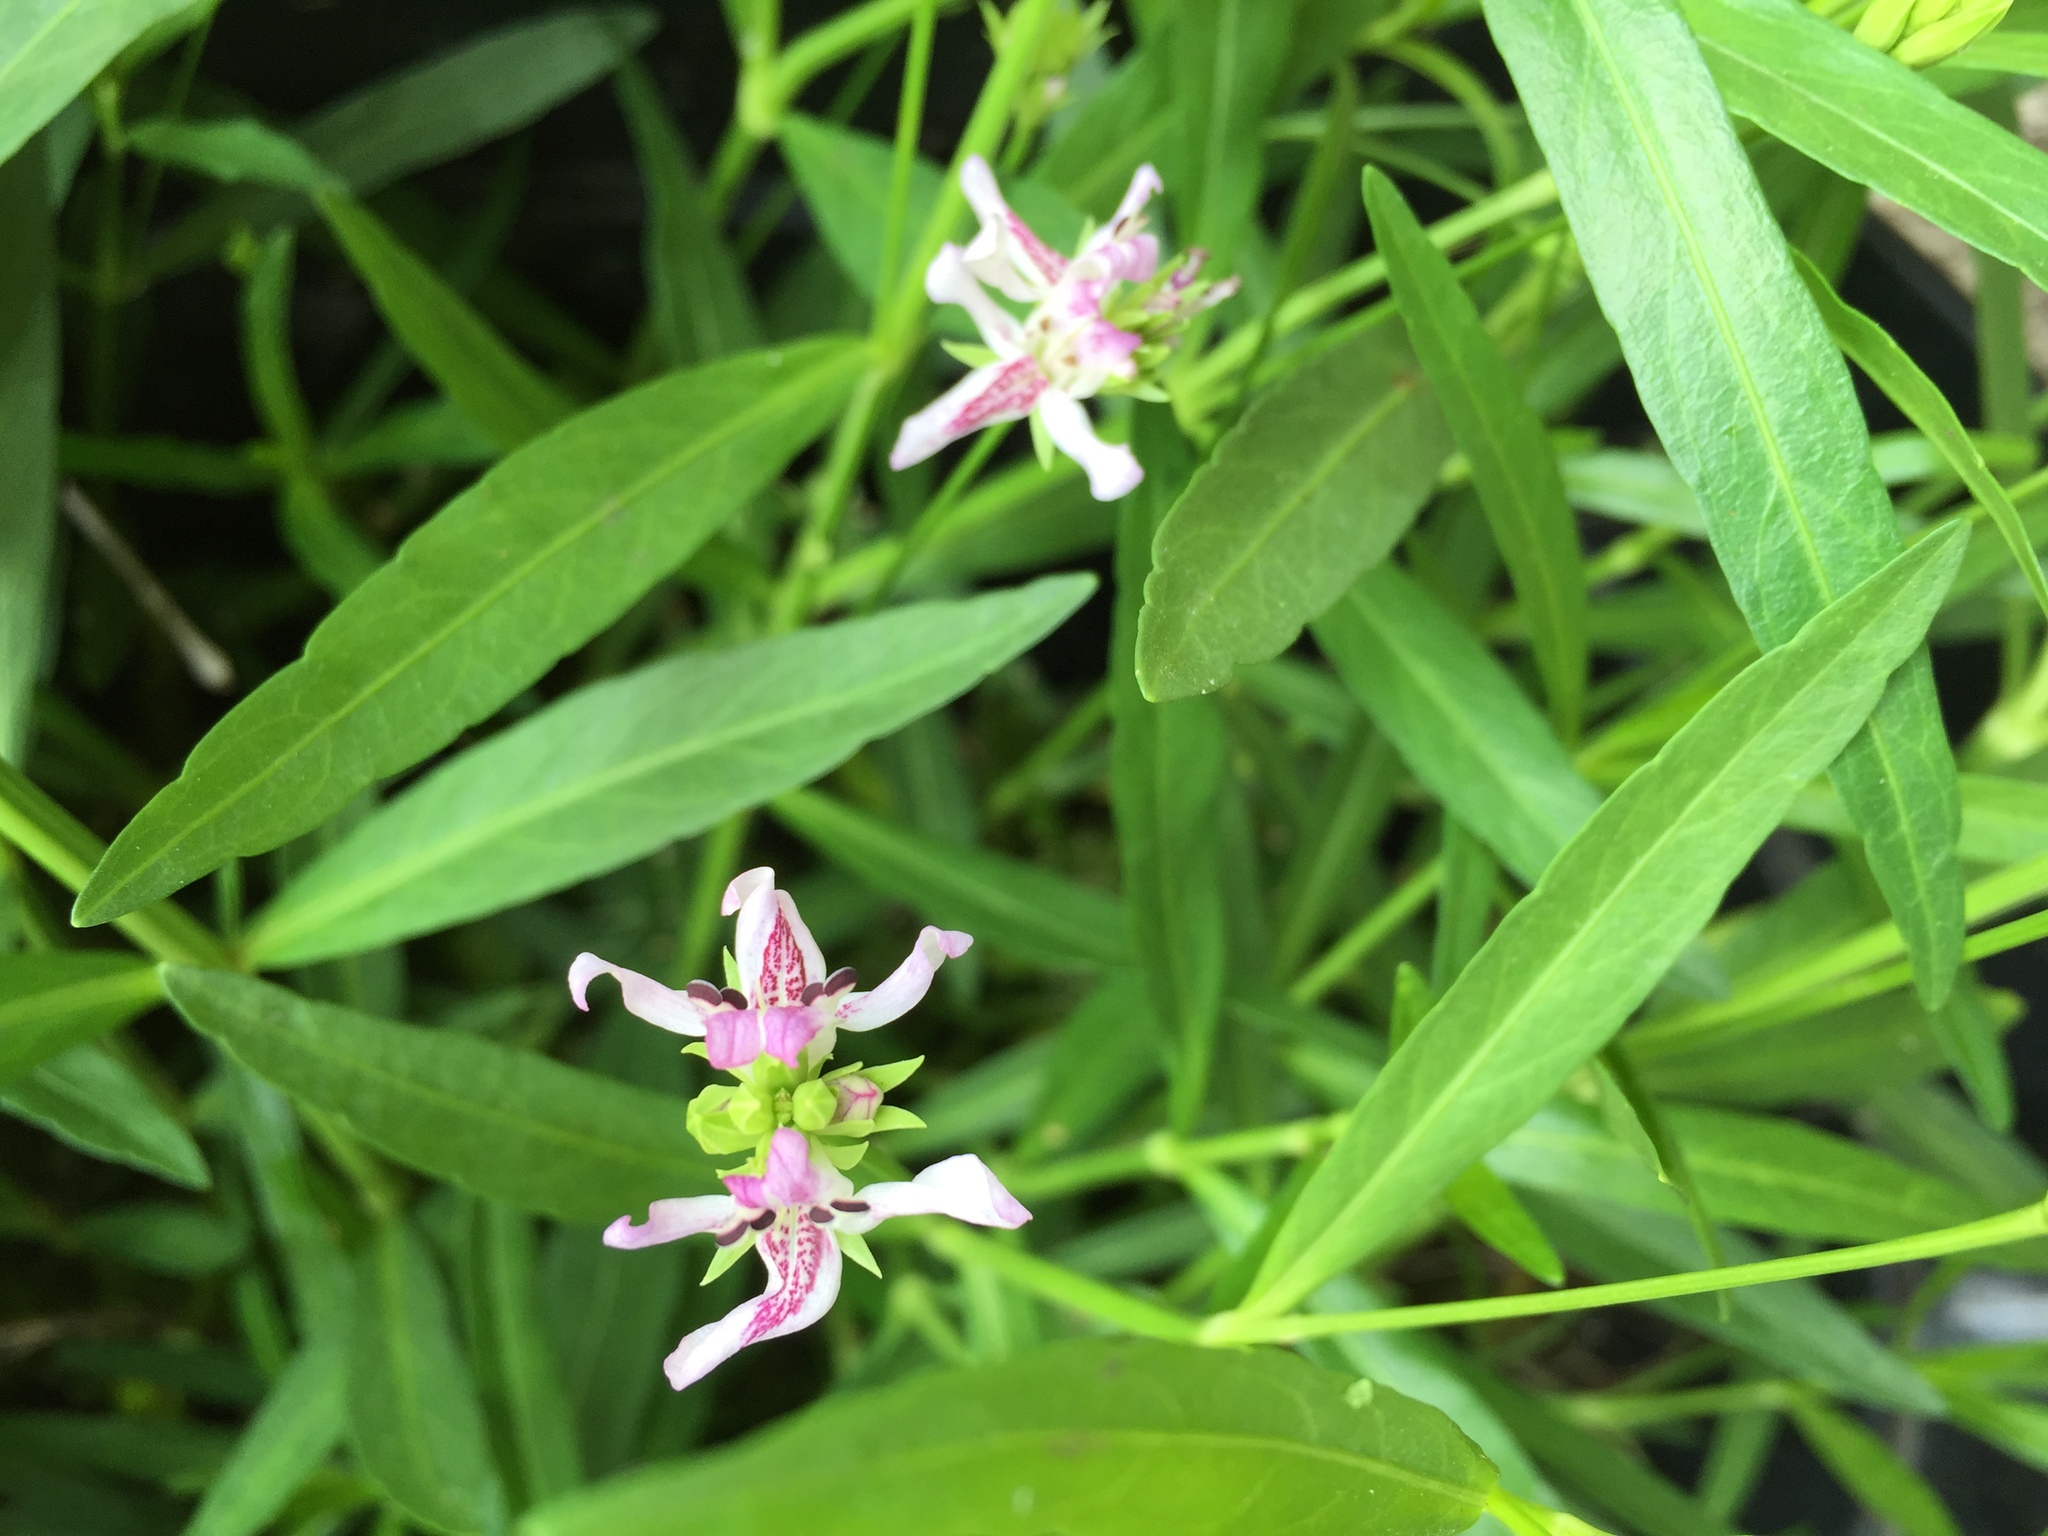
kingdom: Plantae
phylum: Tracheophyta
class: Magnoliopsida
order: Lamiales
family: Acanthaceae
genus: Dianthera
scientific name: Dianthera americana
